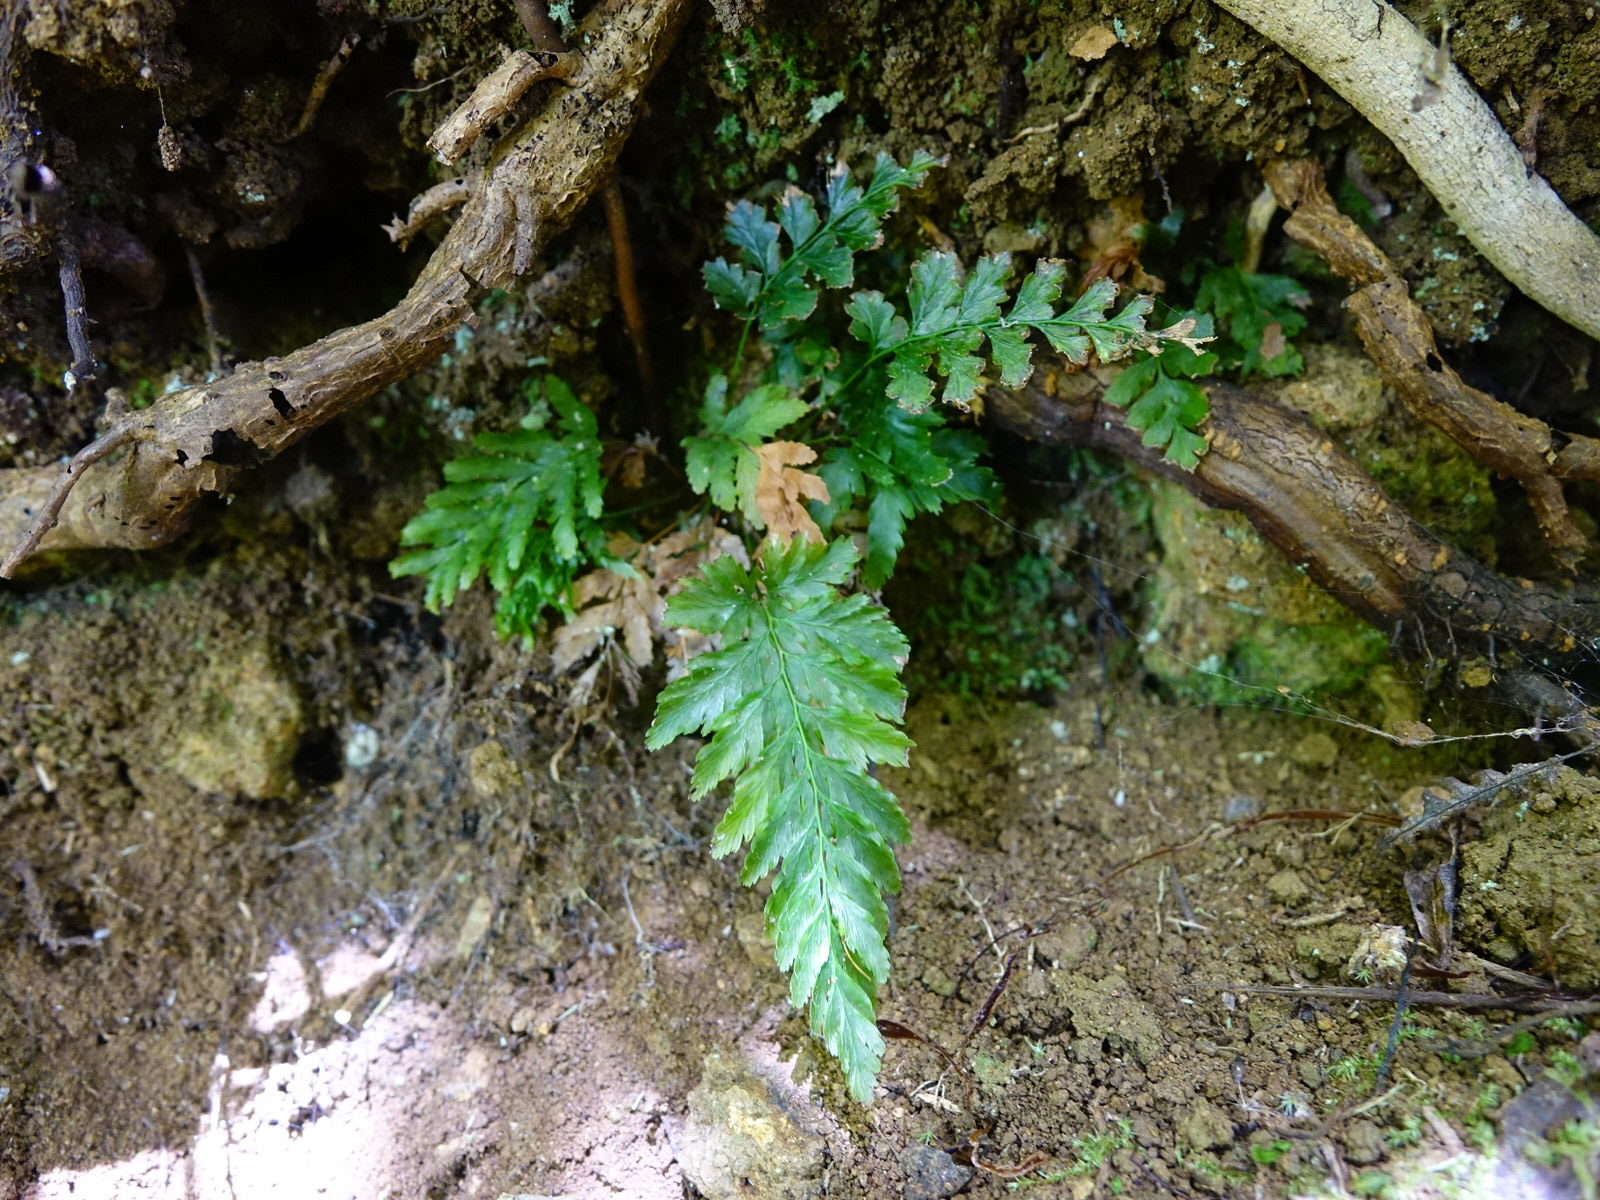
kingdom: Plantae
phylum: Tracheophyta
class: Polypodiopsida
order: Hymenophyllales
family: Hymenophyllaceae
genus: Abrodictyum
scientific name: Abrodictyum elongatum
